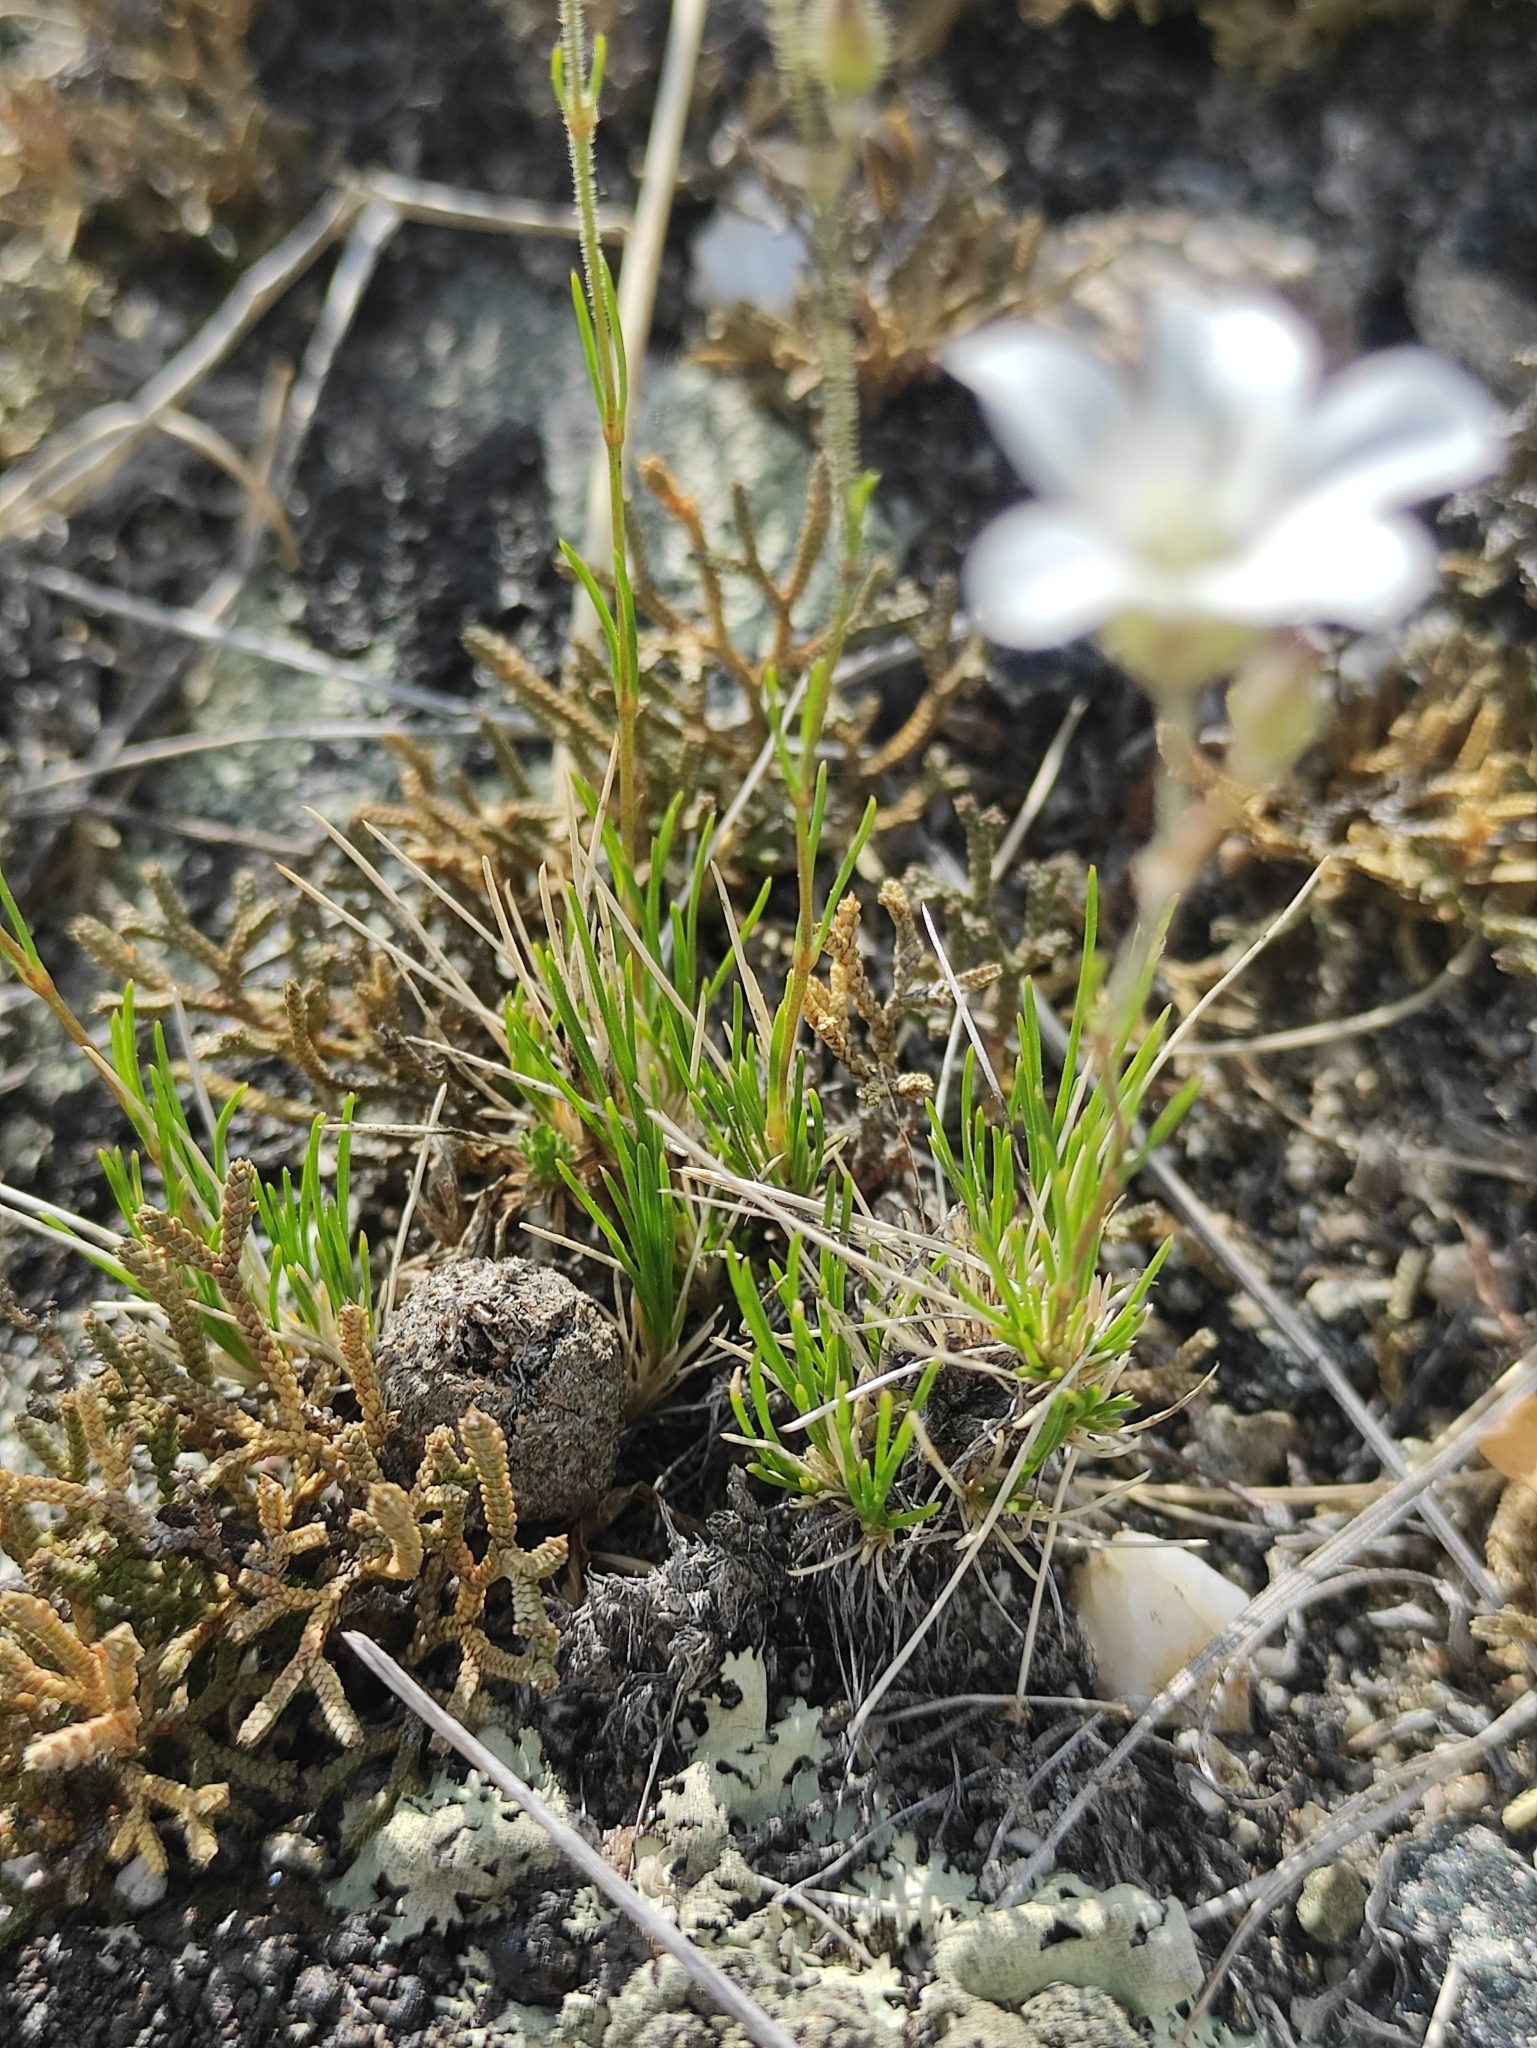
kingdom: Plantae
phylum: Tracheophyta
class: Magnoliopsida
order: Caryophyllales
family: Caryophyllaceae
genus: Eremogone
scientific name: Eremogone meyeri
